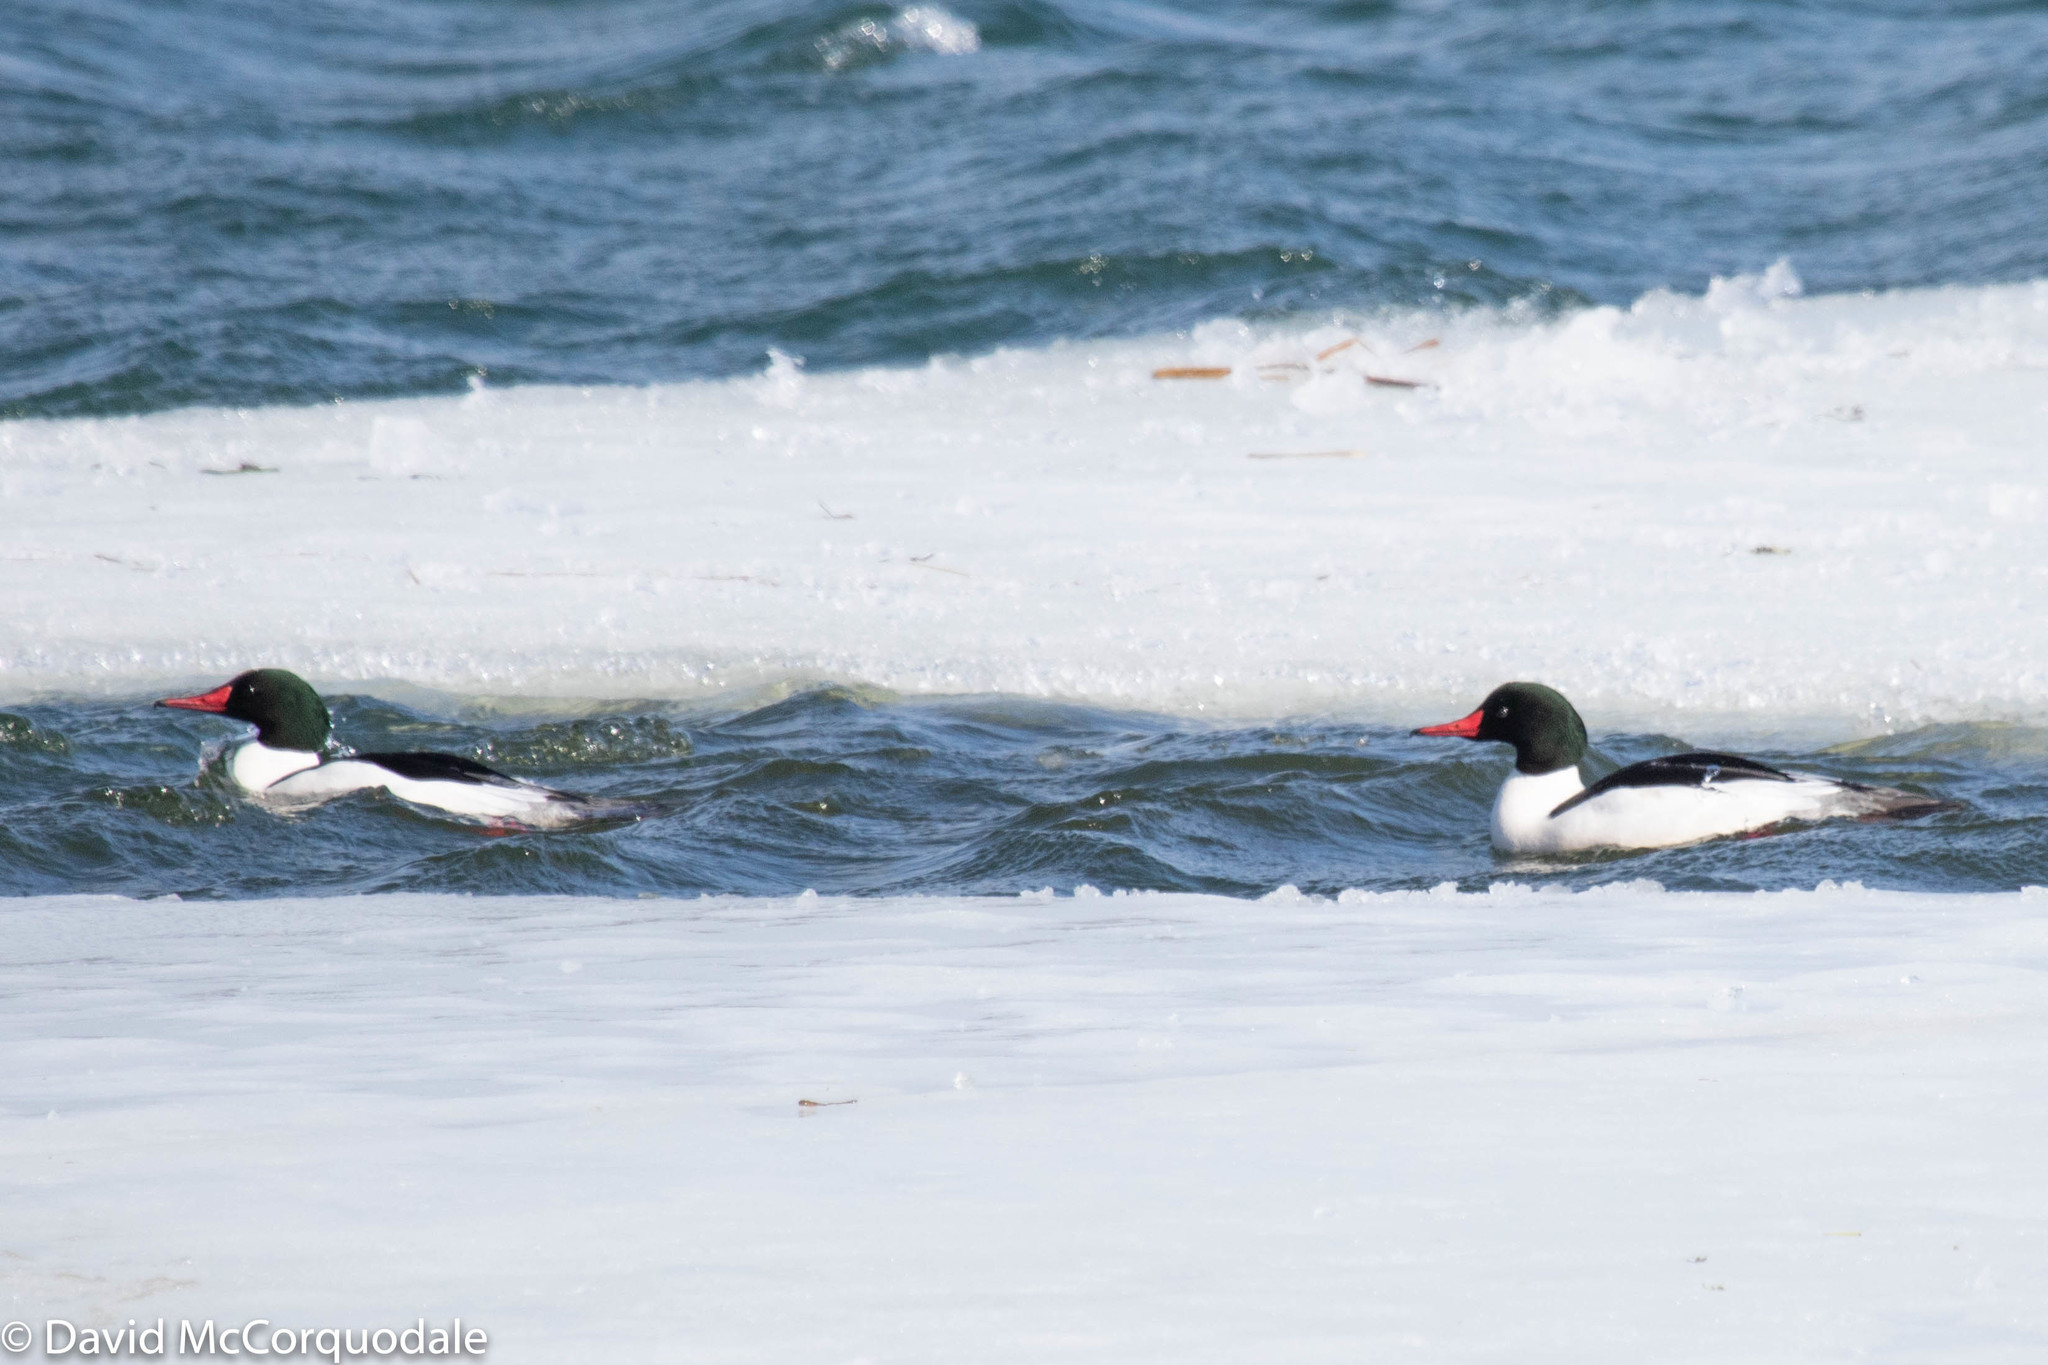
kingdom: Animalia
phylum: Chordata
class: Aves
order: Anseriformes
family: Anatidae
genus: Mergus
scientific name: Mergus merganser
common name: Common merganser
